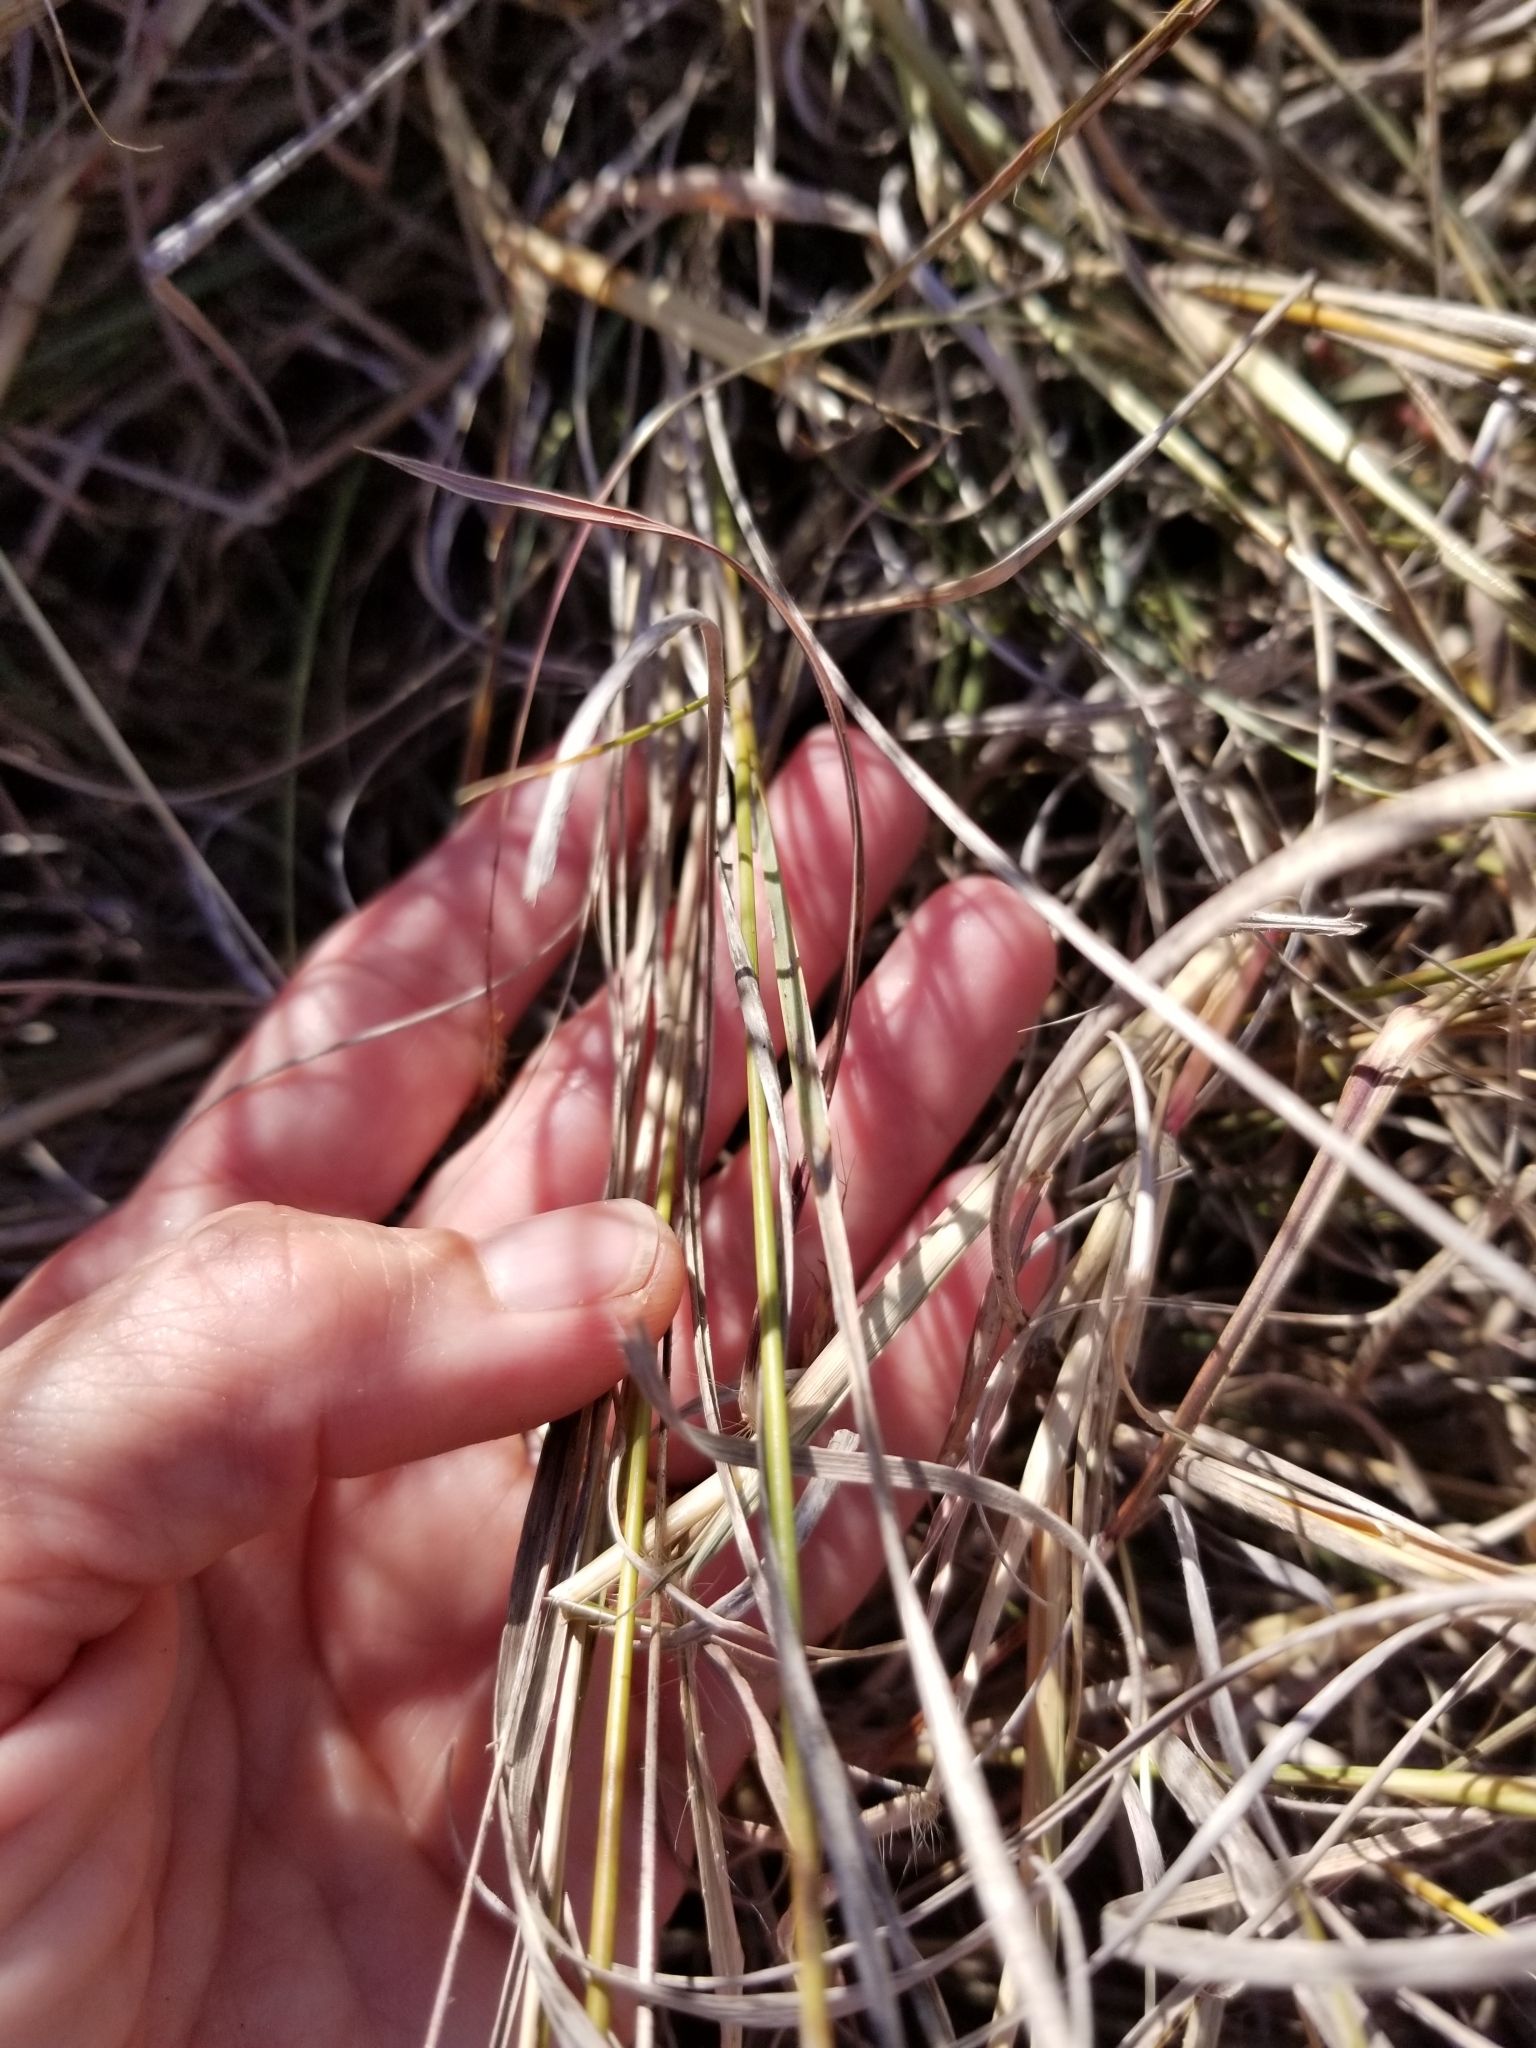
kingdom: Plantae
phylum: Tracheophyta
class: Liliopsida
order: Poales
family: Poaceae
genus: Muhlenbergia
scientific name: Muhlenbergia reverchonii
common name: Seep muhly
